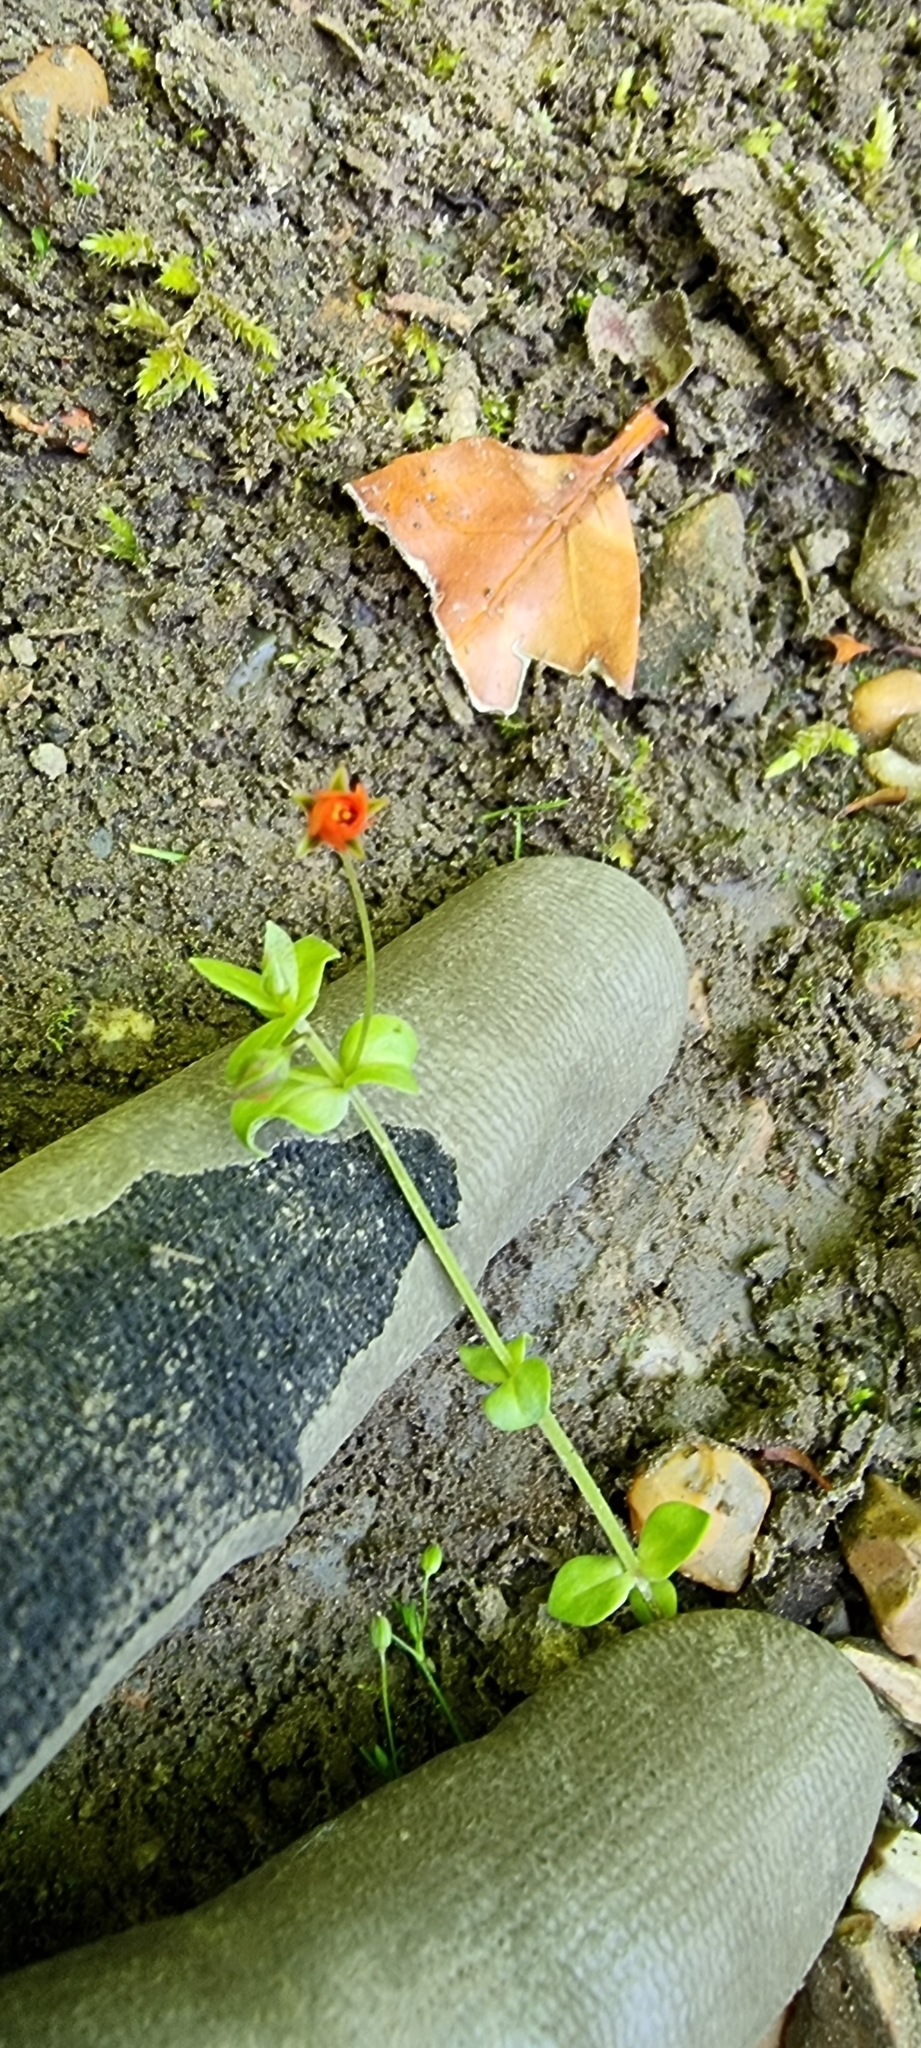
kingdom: Plantae
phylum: Tracheophyta
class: Magnoliopsida
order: Ericales
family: Primulaceae
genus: Lysimachia
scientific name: Lysimachia arvensis
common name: Scarlet pimpernel
